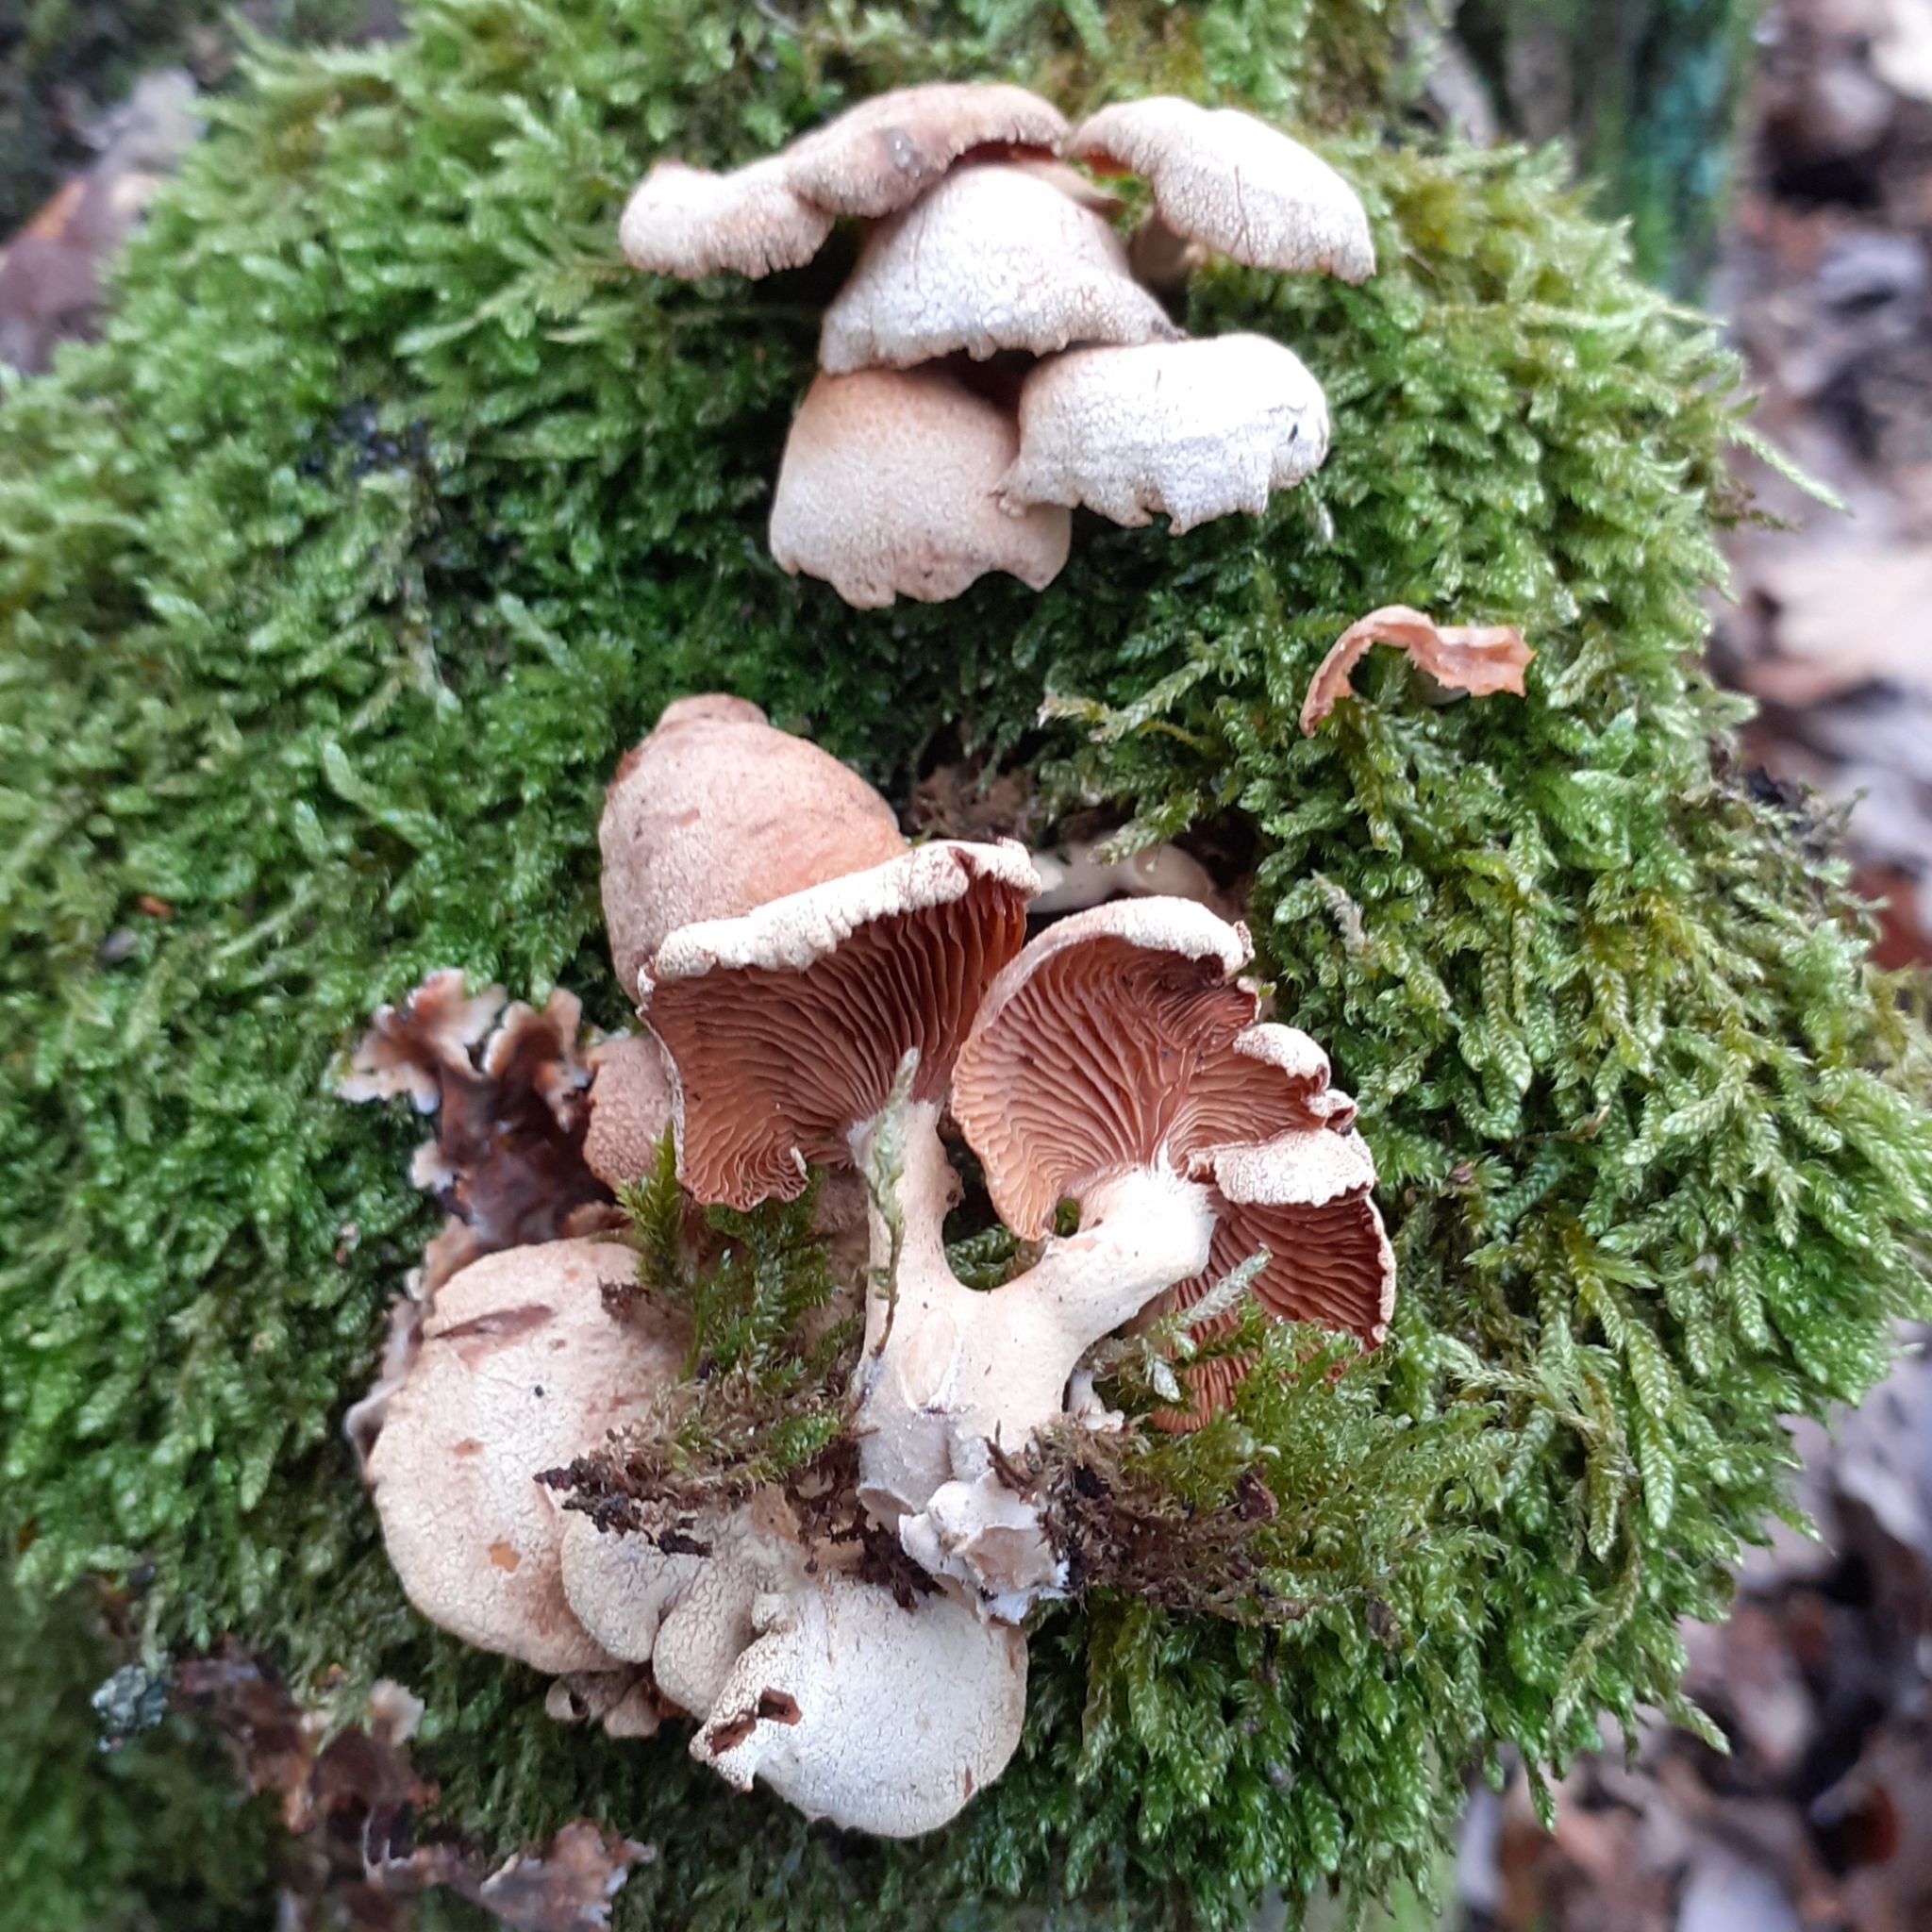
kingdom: Fungi
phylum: Basidiomycota
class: Agaricomycetes
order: Agaricales
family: Mycenaceae
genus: Panellus
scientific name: Panellus stipticus
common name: Bitter oysterling
